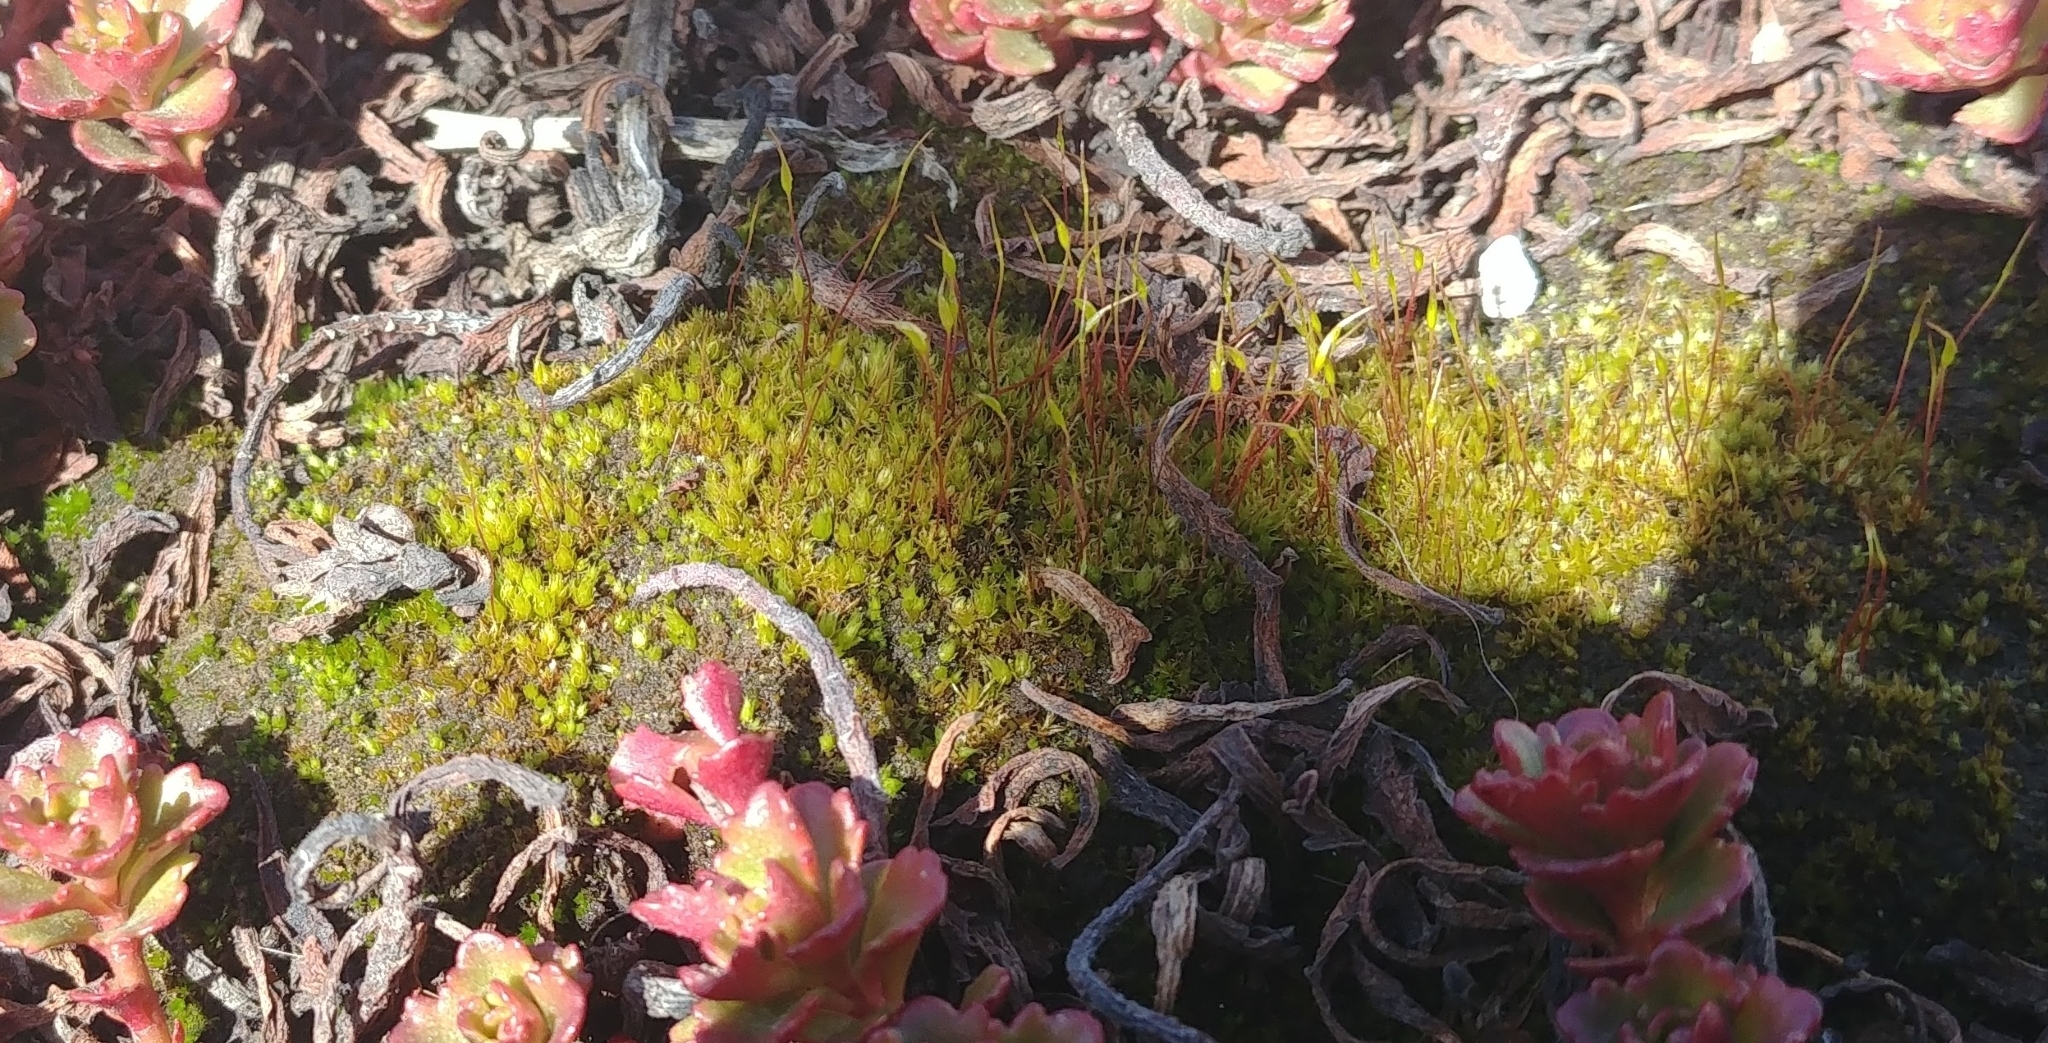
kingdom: Plantae
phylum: Bryophyta
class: Bryopsida
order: Dicranales
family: Ditrichaceae
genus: Ceratodon
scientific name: Ceratodon purpureus
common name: Redshank
